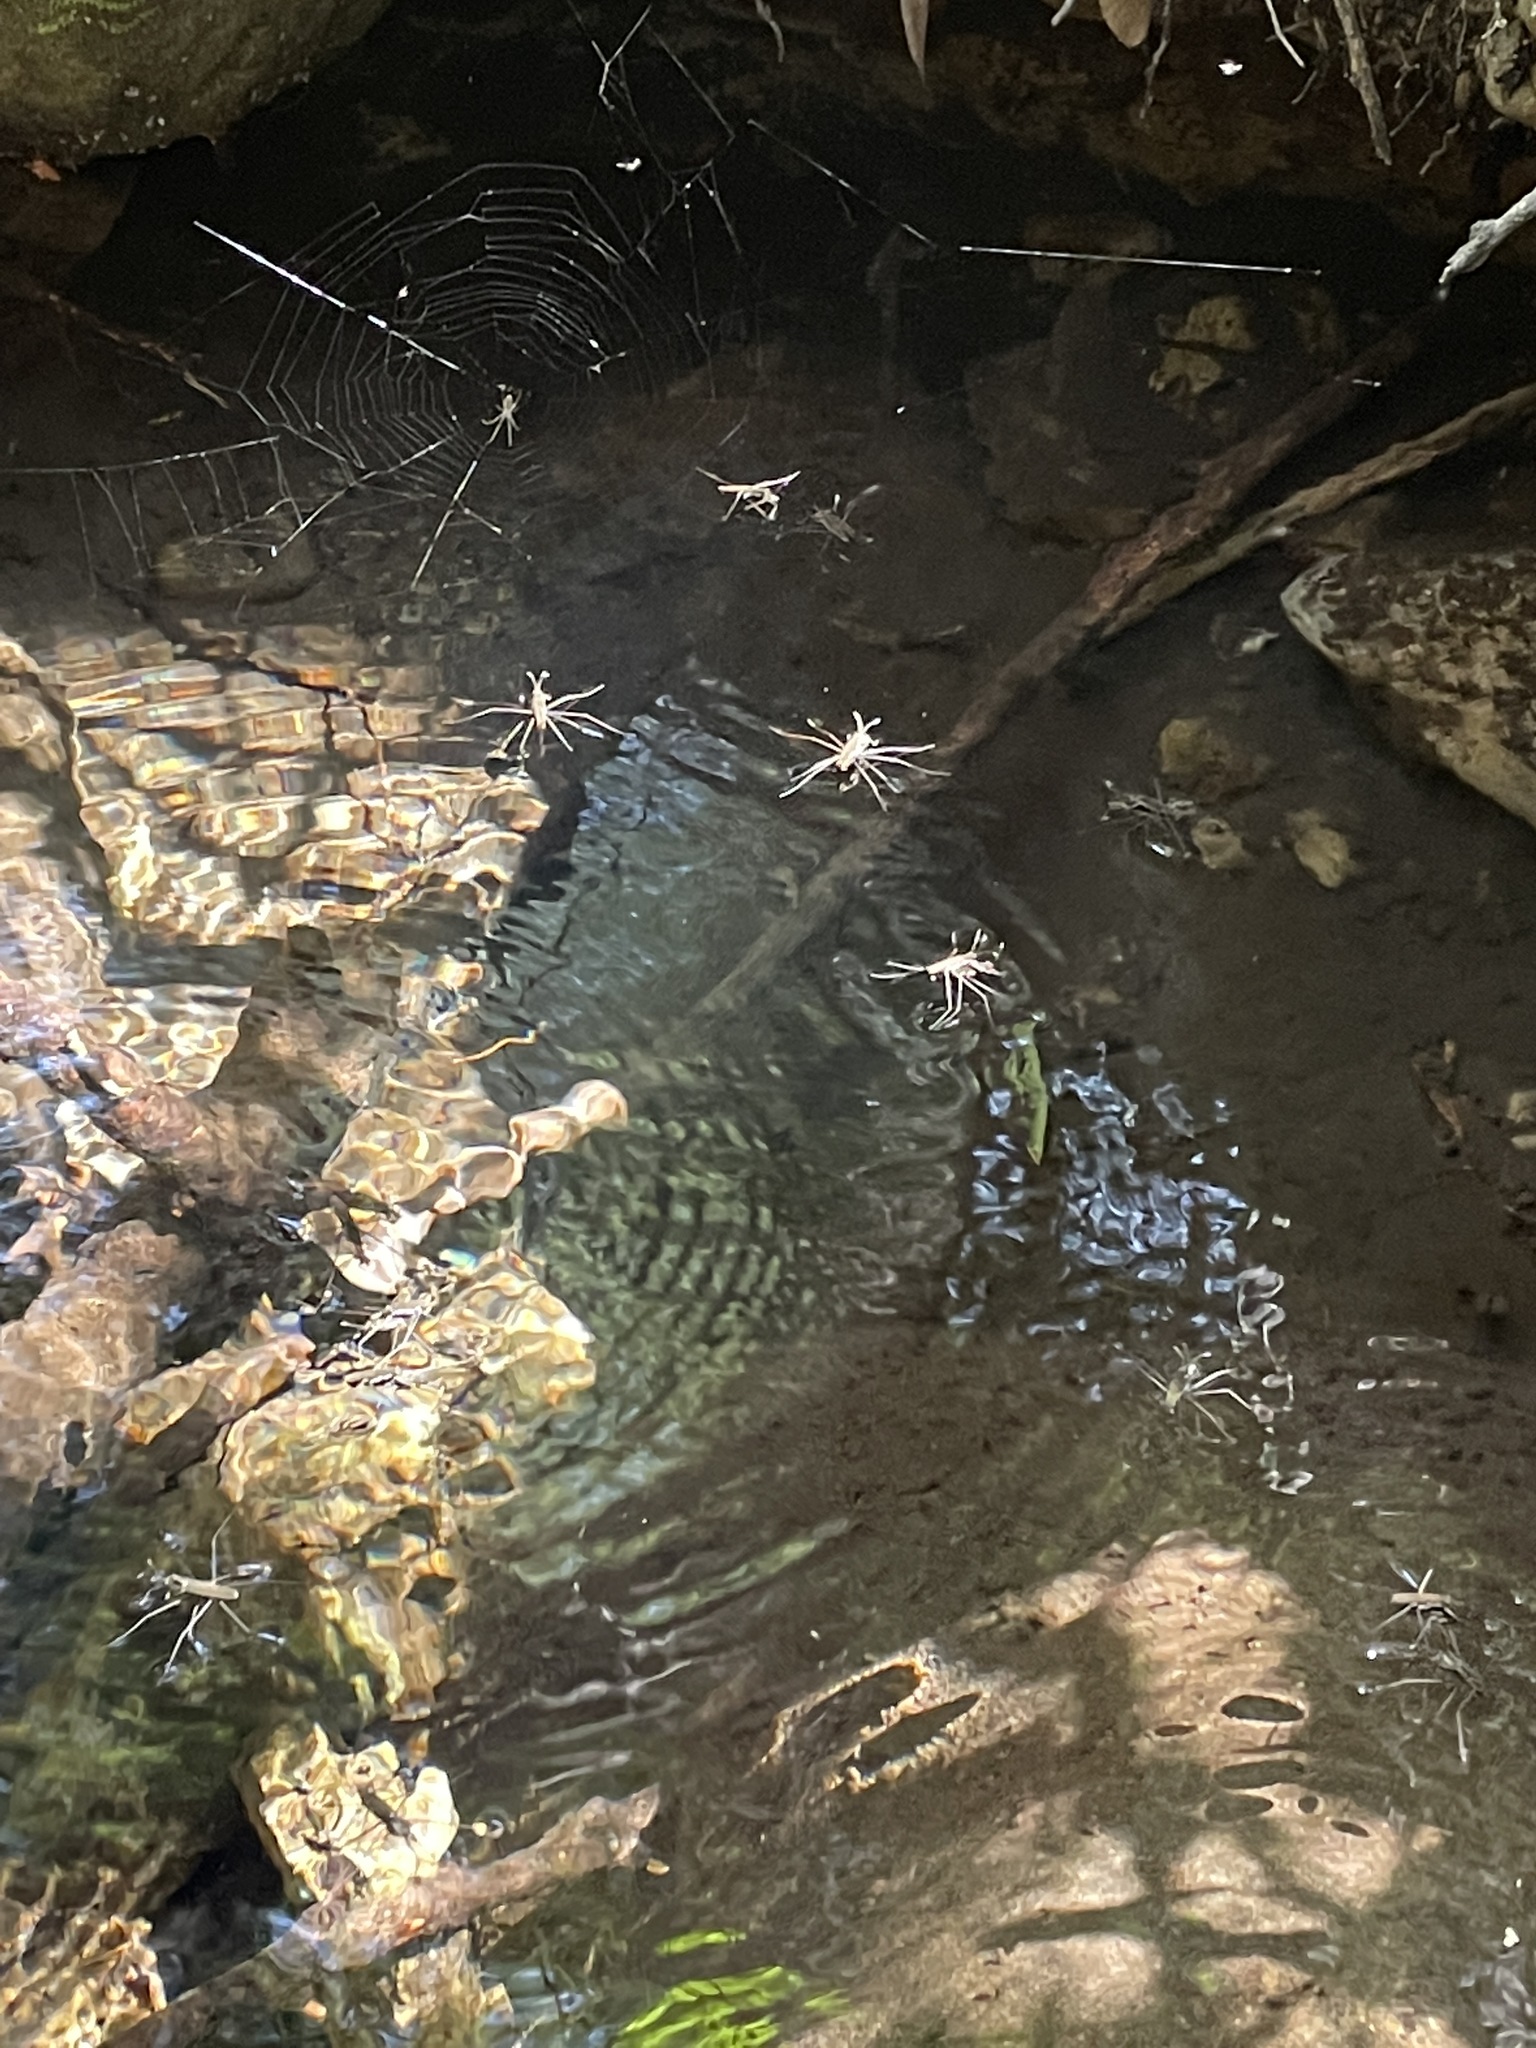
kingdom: Animalia
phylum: Arthropoda
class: Insecta
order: Hemiptera
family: Gerridae
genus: Aquarius
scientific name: Aquarius remigis
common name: Common water strider
